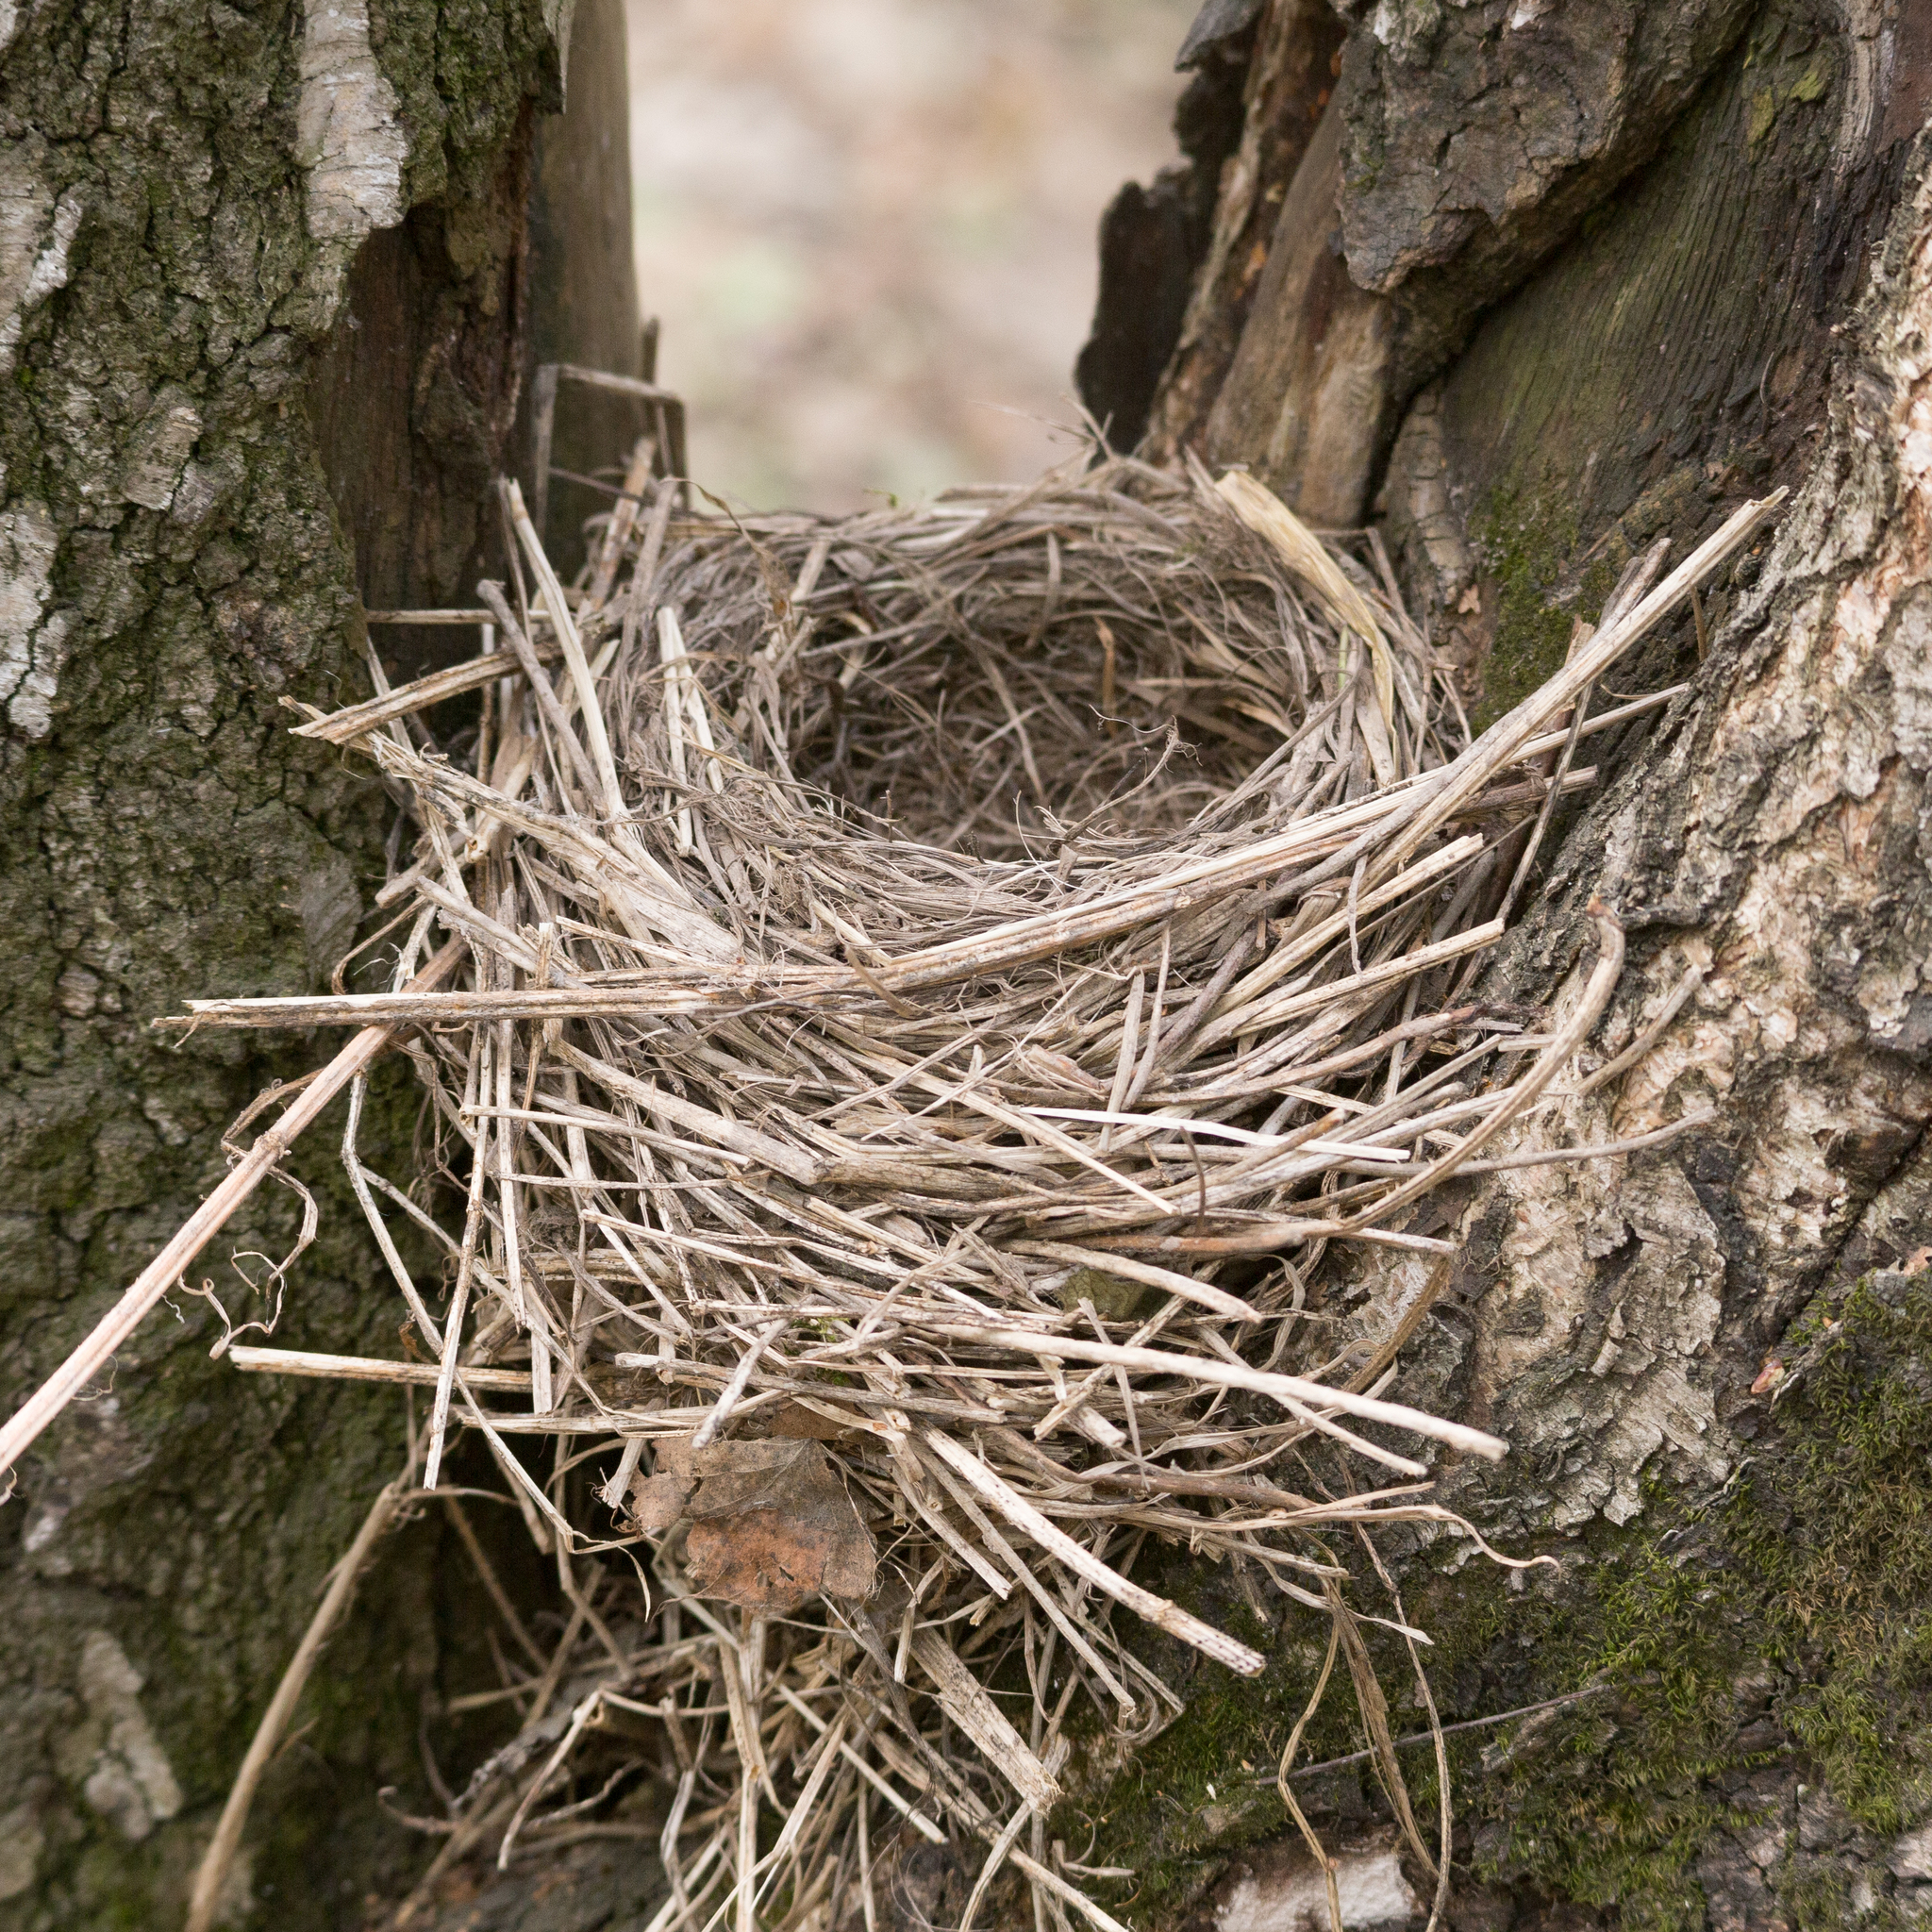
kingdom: Animalia
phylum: Chordata
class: Aves
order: Passeriformes
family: Turdidae
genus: Turdus
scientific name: Turdus iliacus
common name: Redwing
